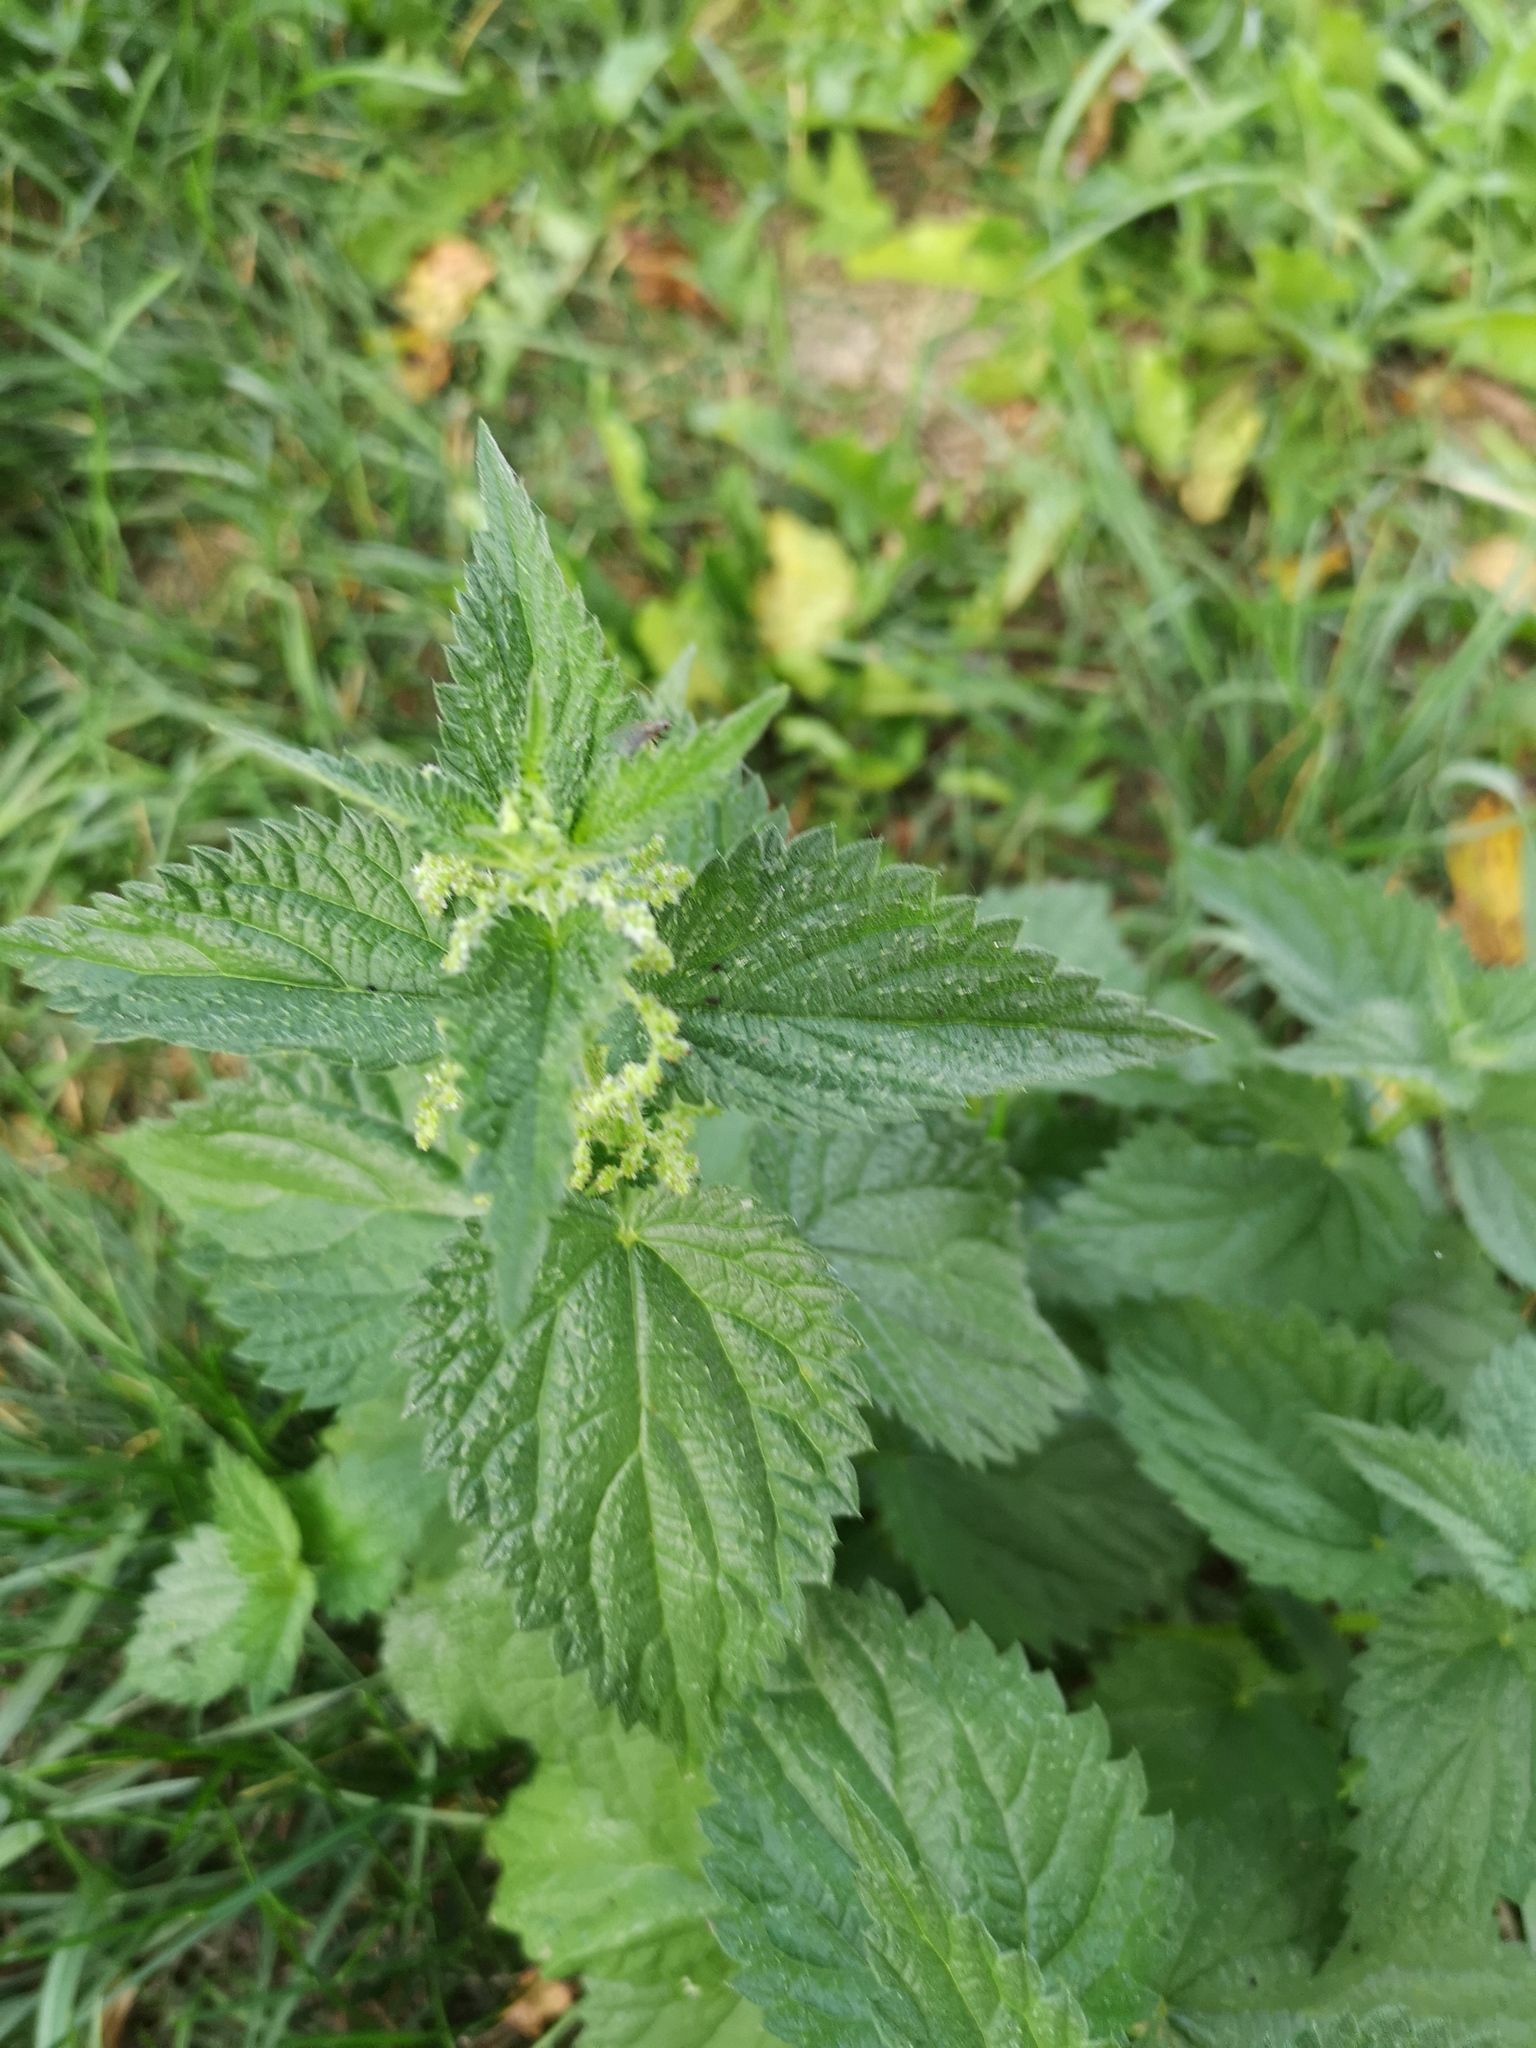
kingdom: Plantae
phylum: Tracheophyta
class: Magnoliopsida
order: Rosales
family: Urticaceae
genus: Urtica
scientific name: Urtica dioica
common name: Common nettle
